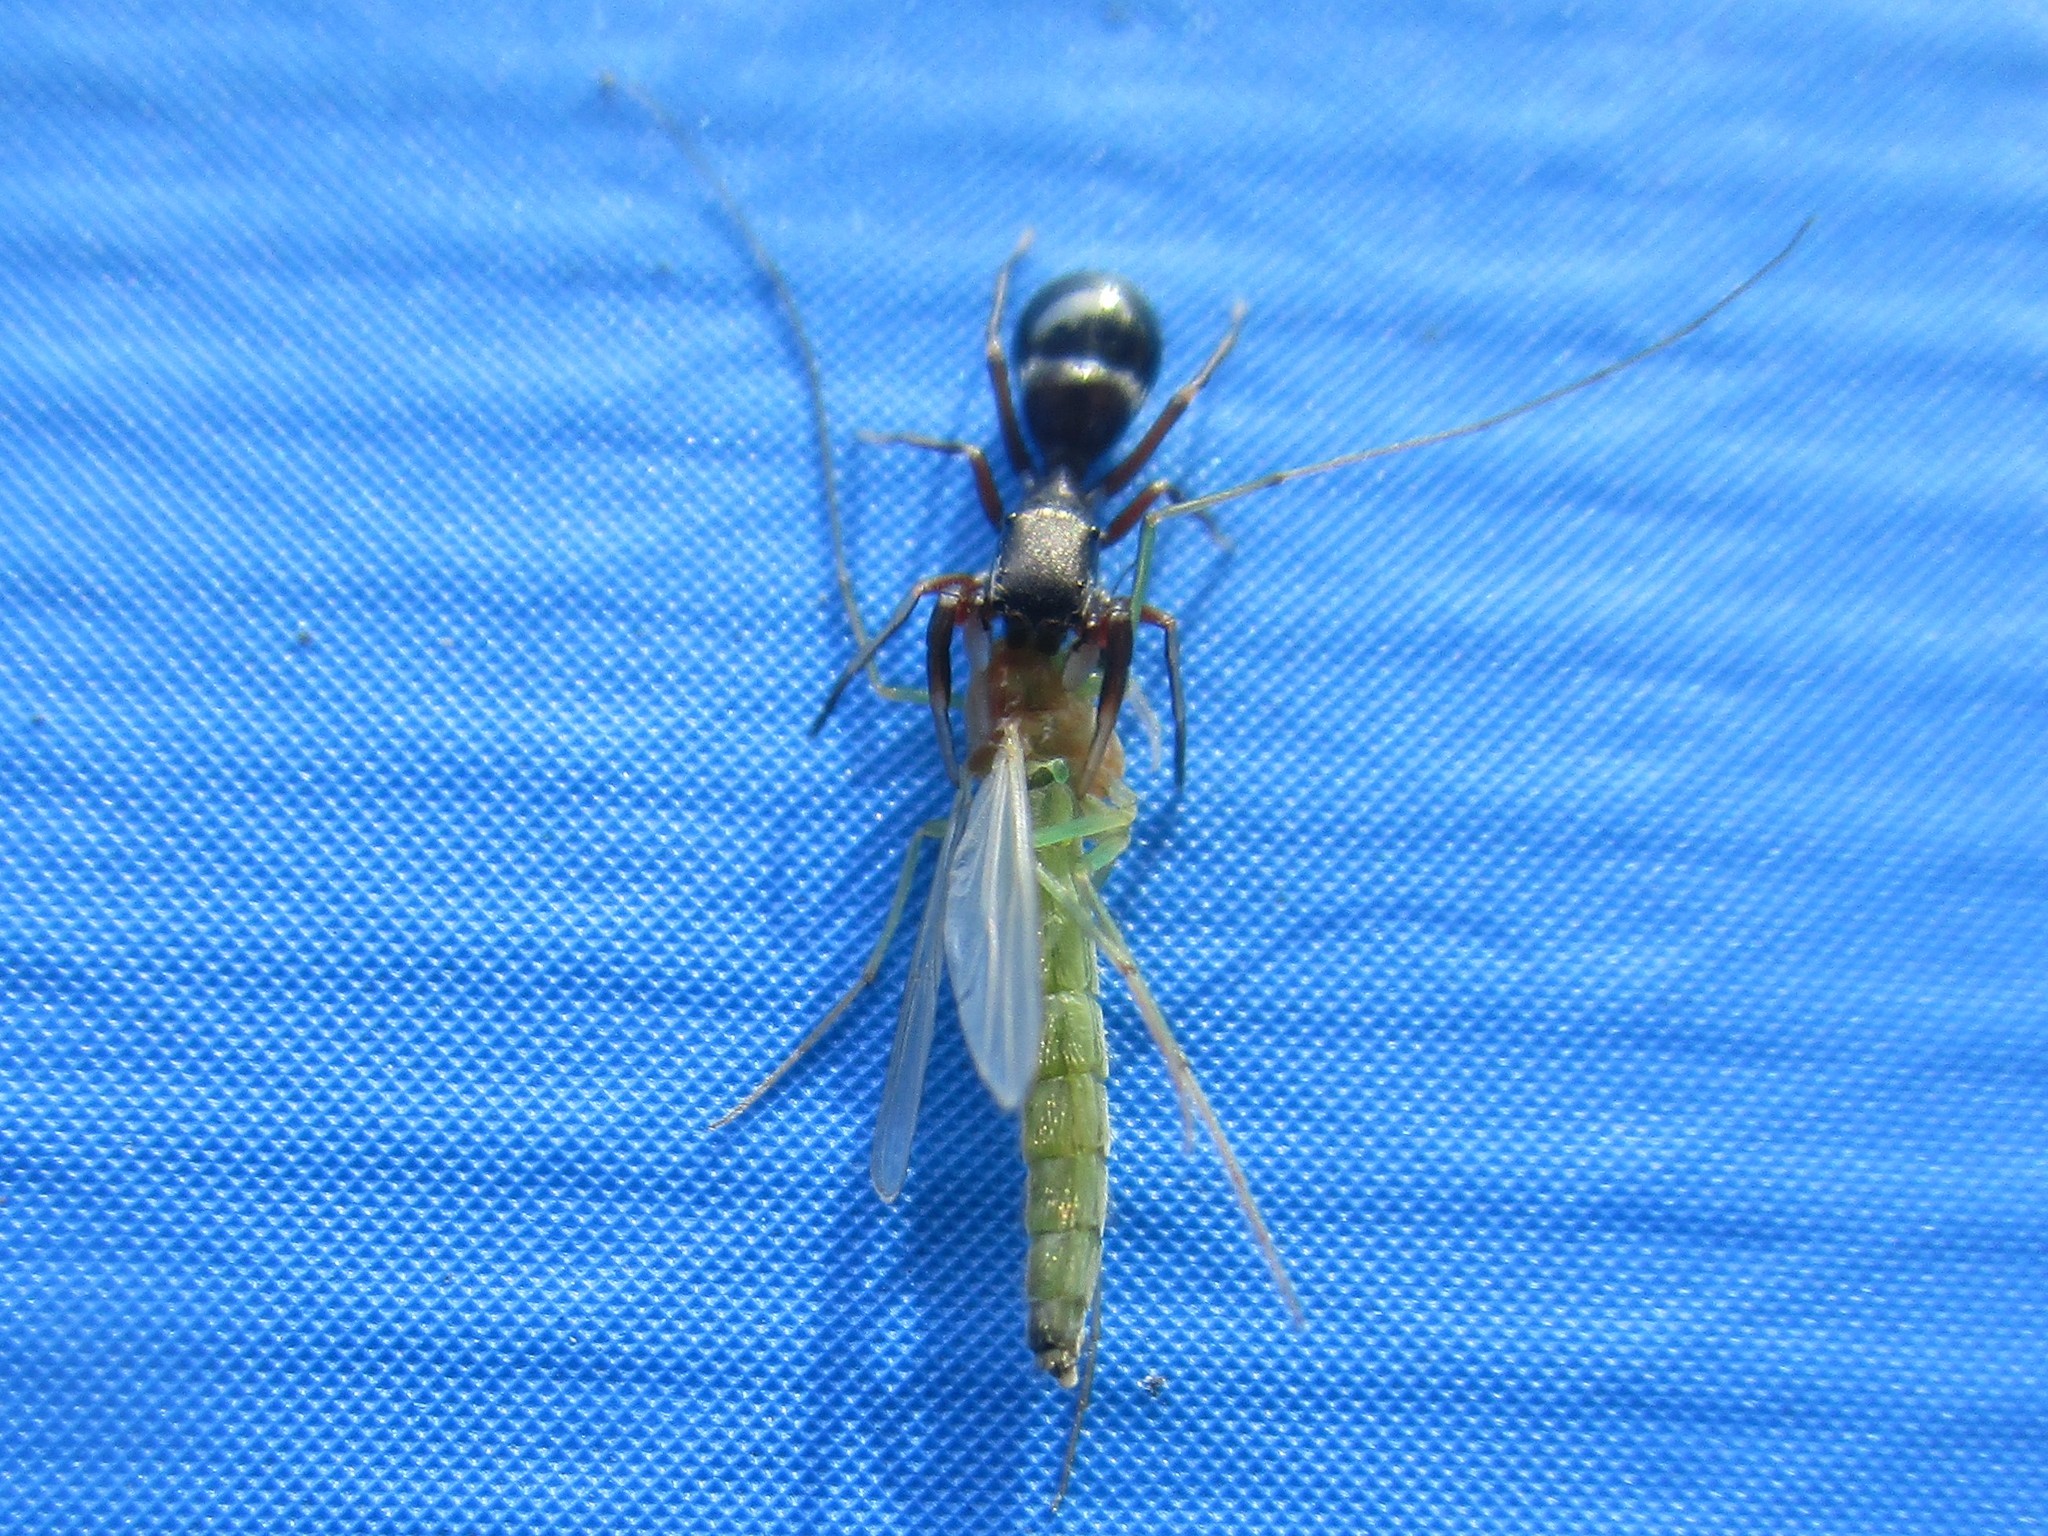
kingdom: Animalia
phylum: Arthropoda
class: Arachnida
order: Araneae
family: Salticidae
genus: Peckhamia
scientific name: Peckhamia
